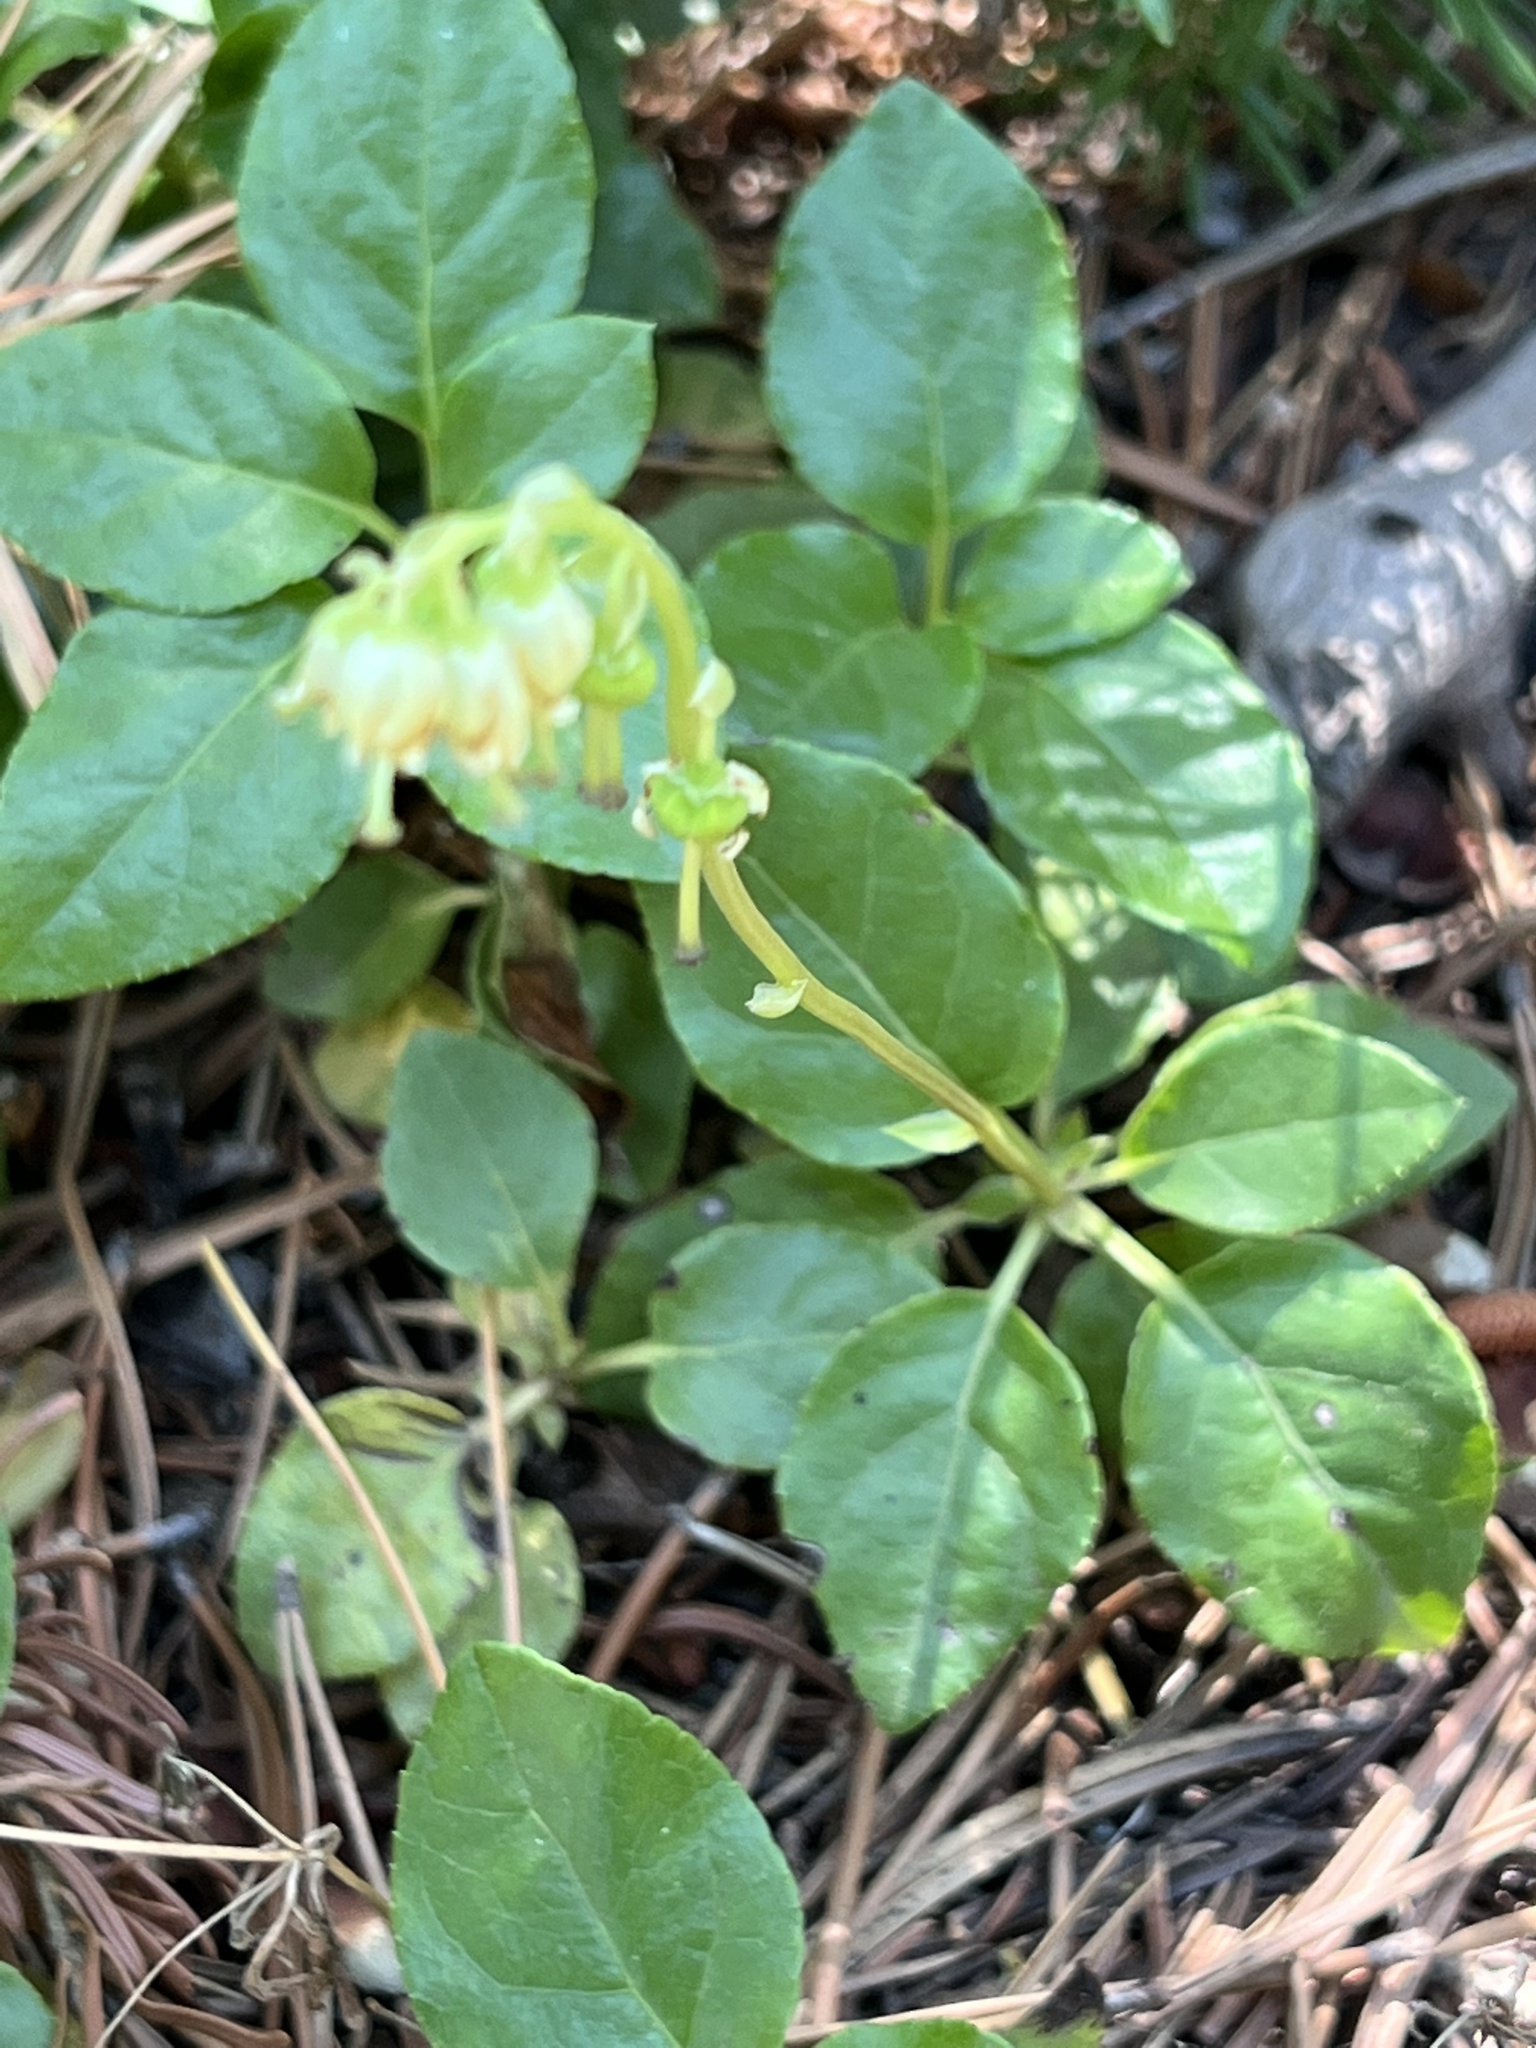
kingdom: Plantae
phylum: Tracheophyta
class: Magnoliopsida
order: Ericales
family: Ericaceae
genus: Orthilia
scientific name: Orthilia secunda
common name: One-sided orthilia
